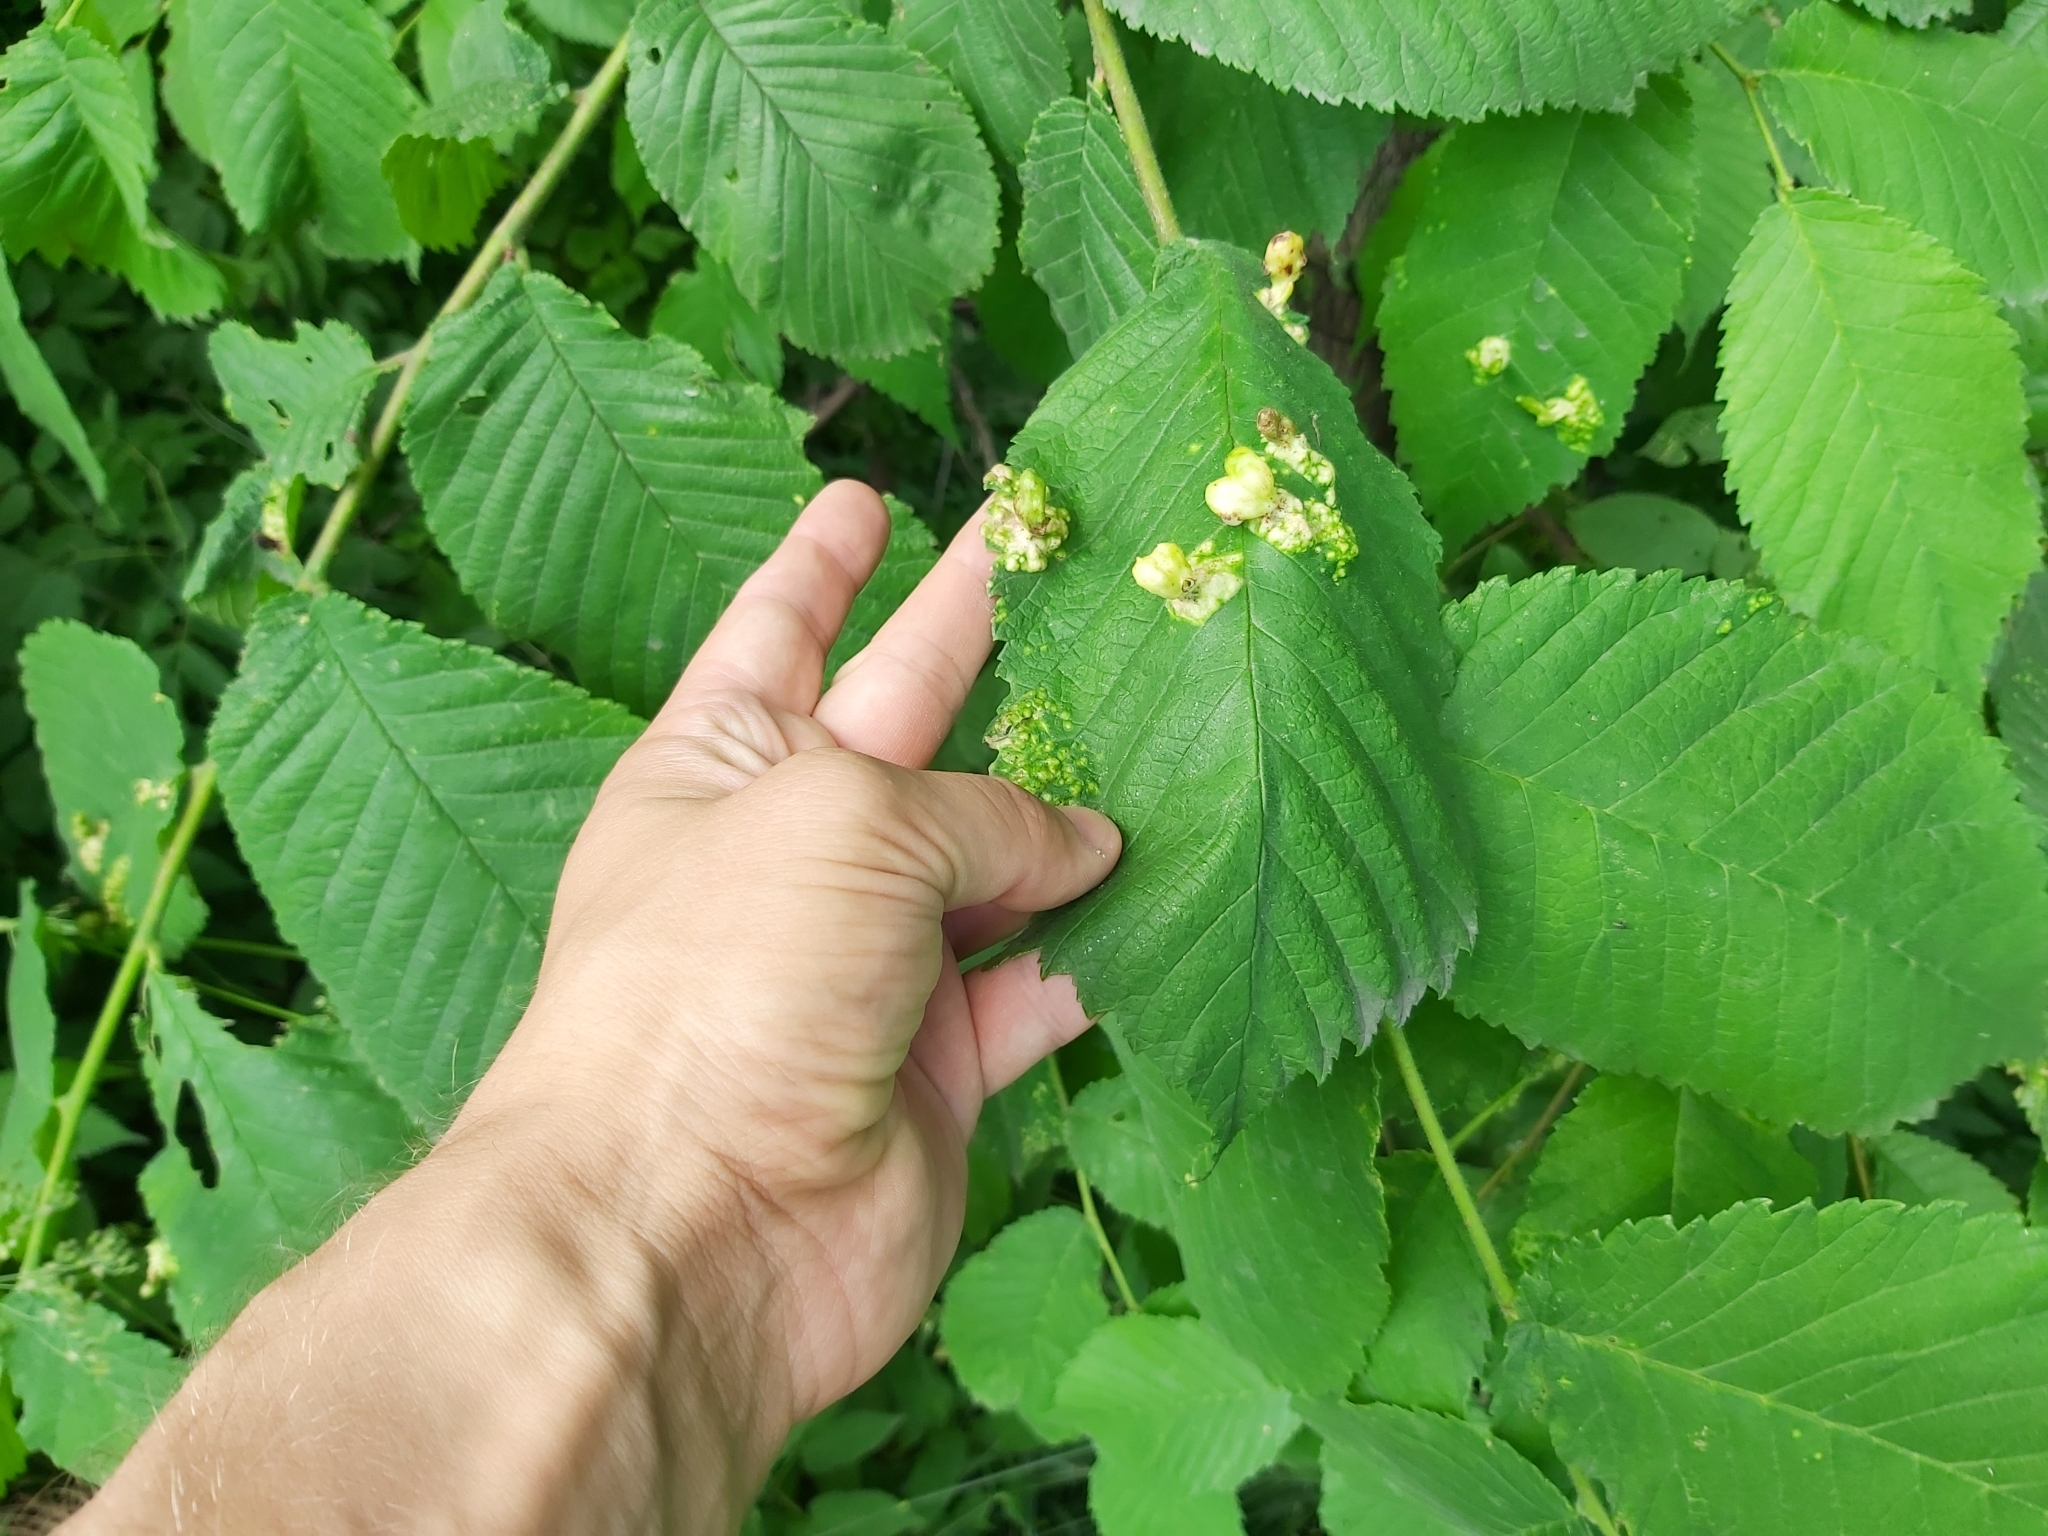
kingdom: Animalia
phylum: Arthropoda
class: Insecta
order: Hemiptera
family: Aphididae
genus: Tetraneura
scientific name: Tetraneura ulmi
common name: Aphid
